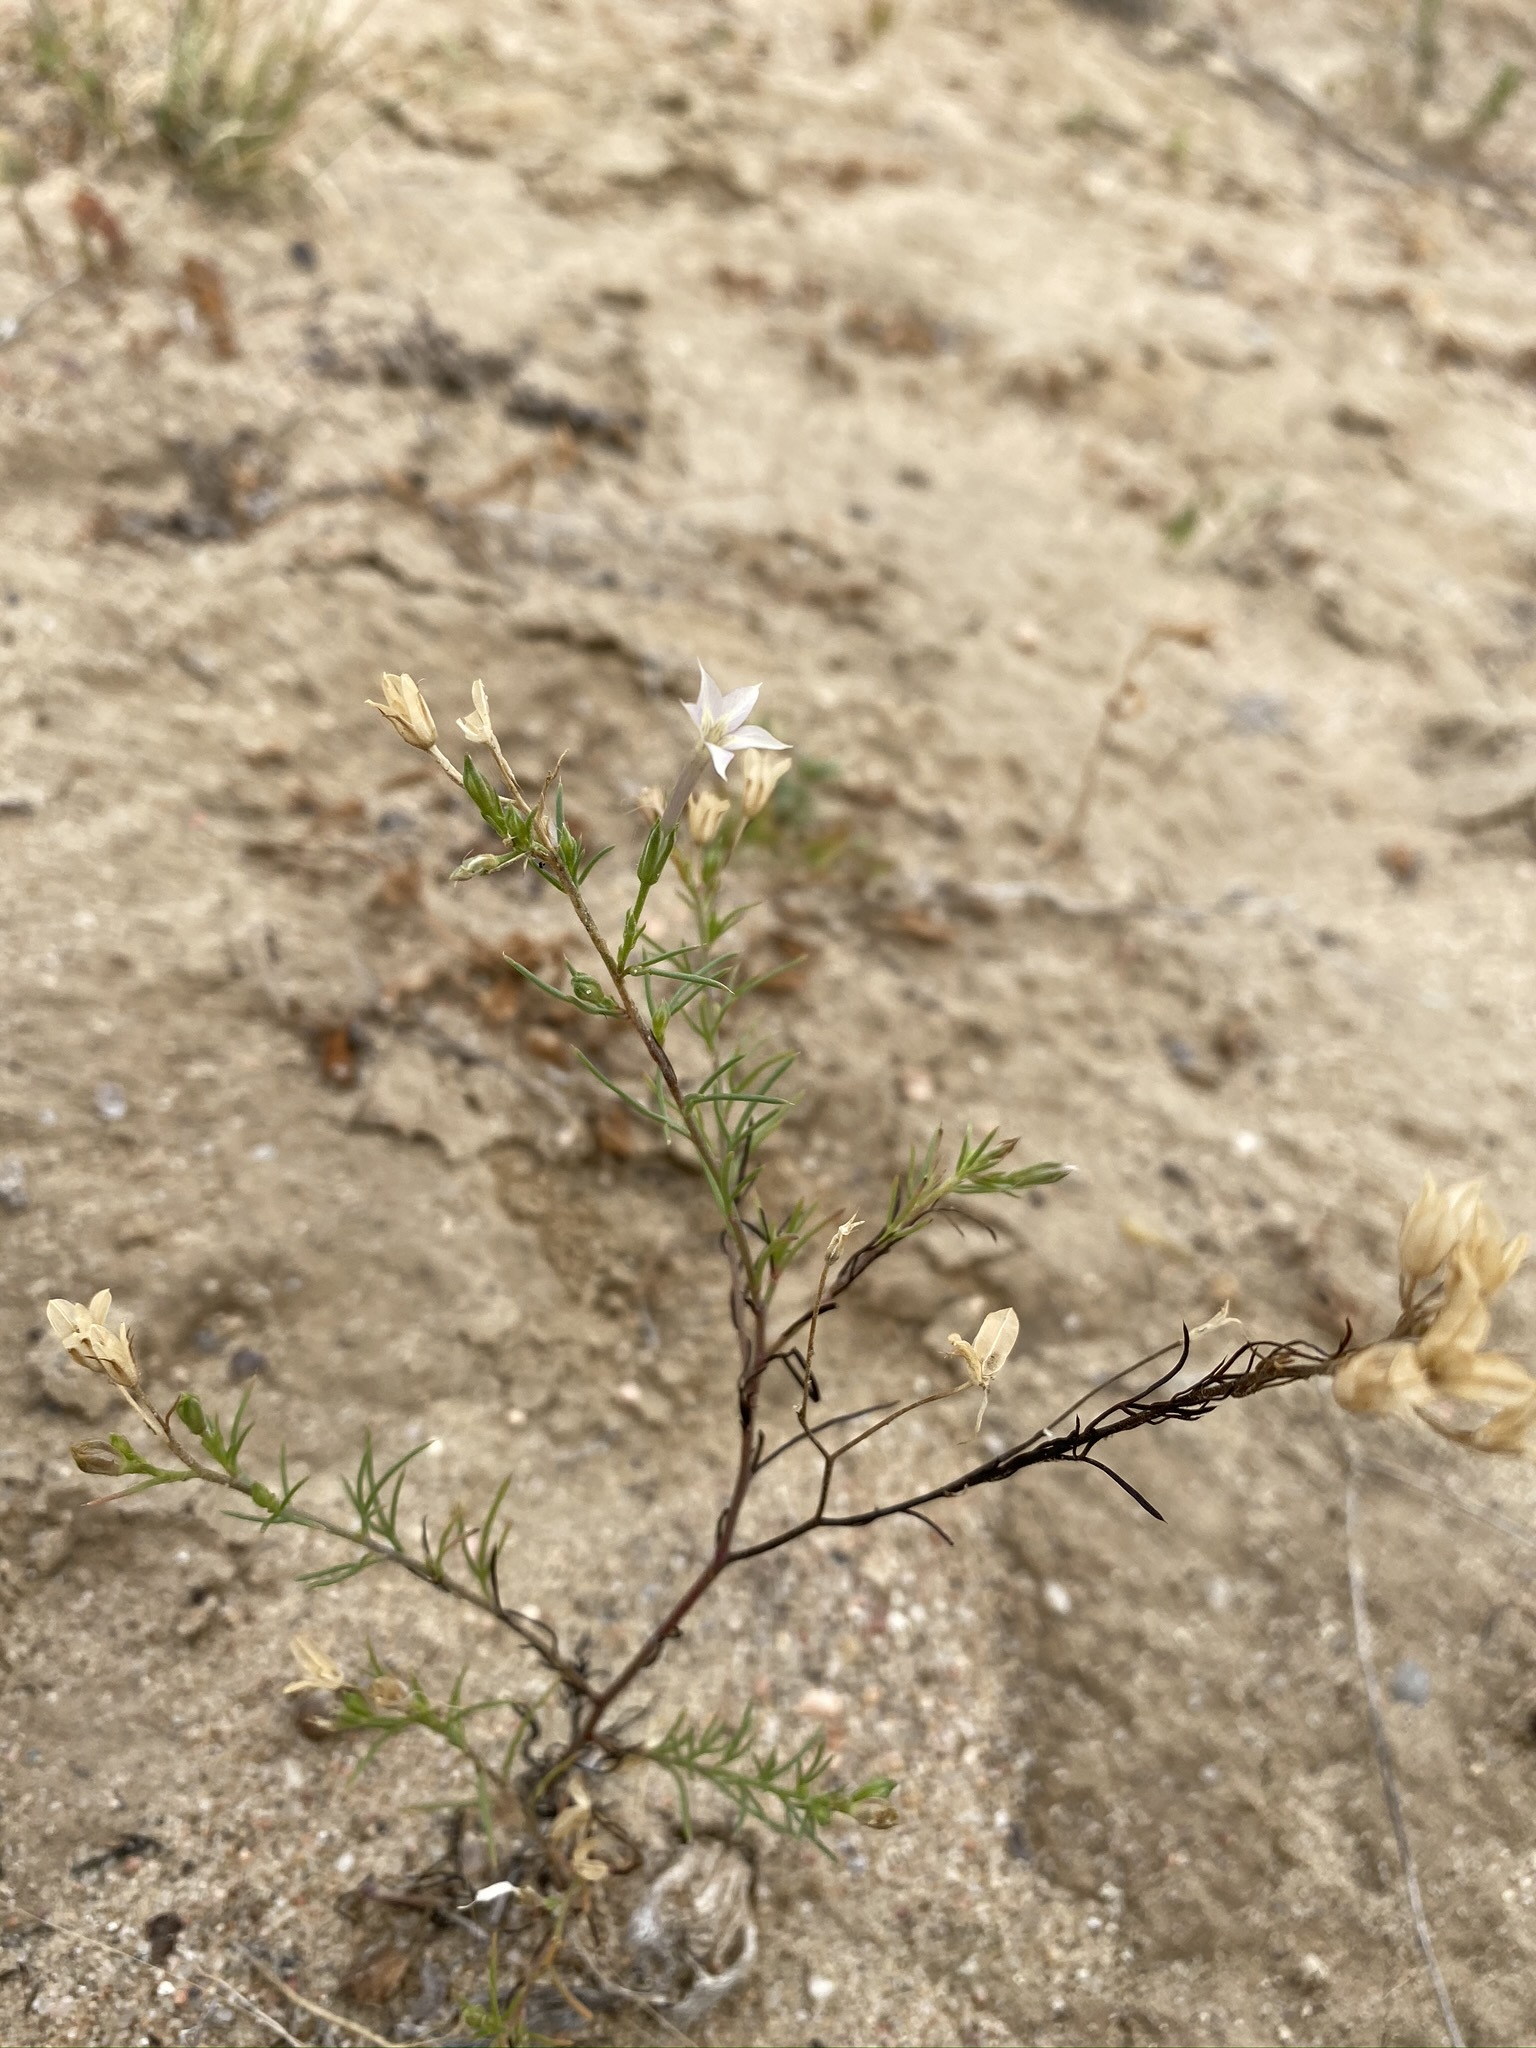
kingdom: Plantae
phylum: Tracheophyta
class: Magnoliopsida
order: Ericales
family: Polemoniaceae
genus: Ipomopsis
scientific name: Ipomopsis laxiflora
